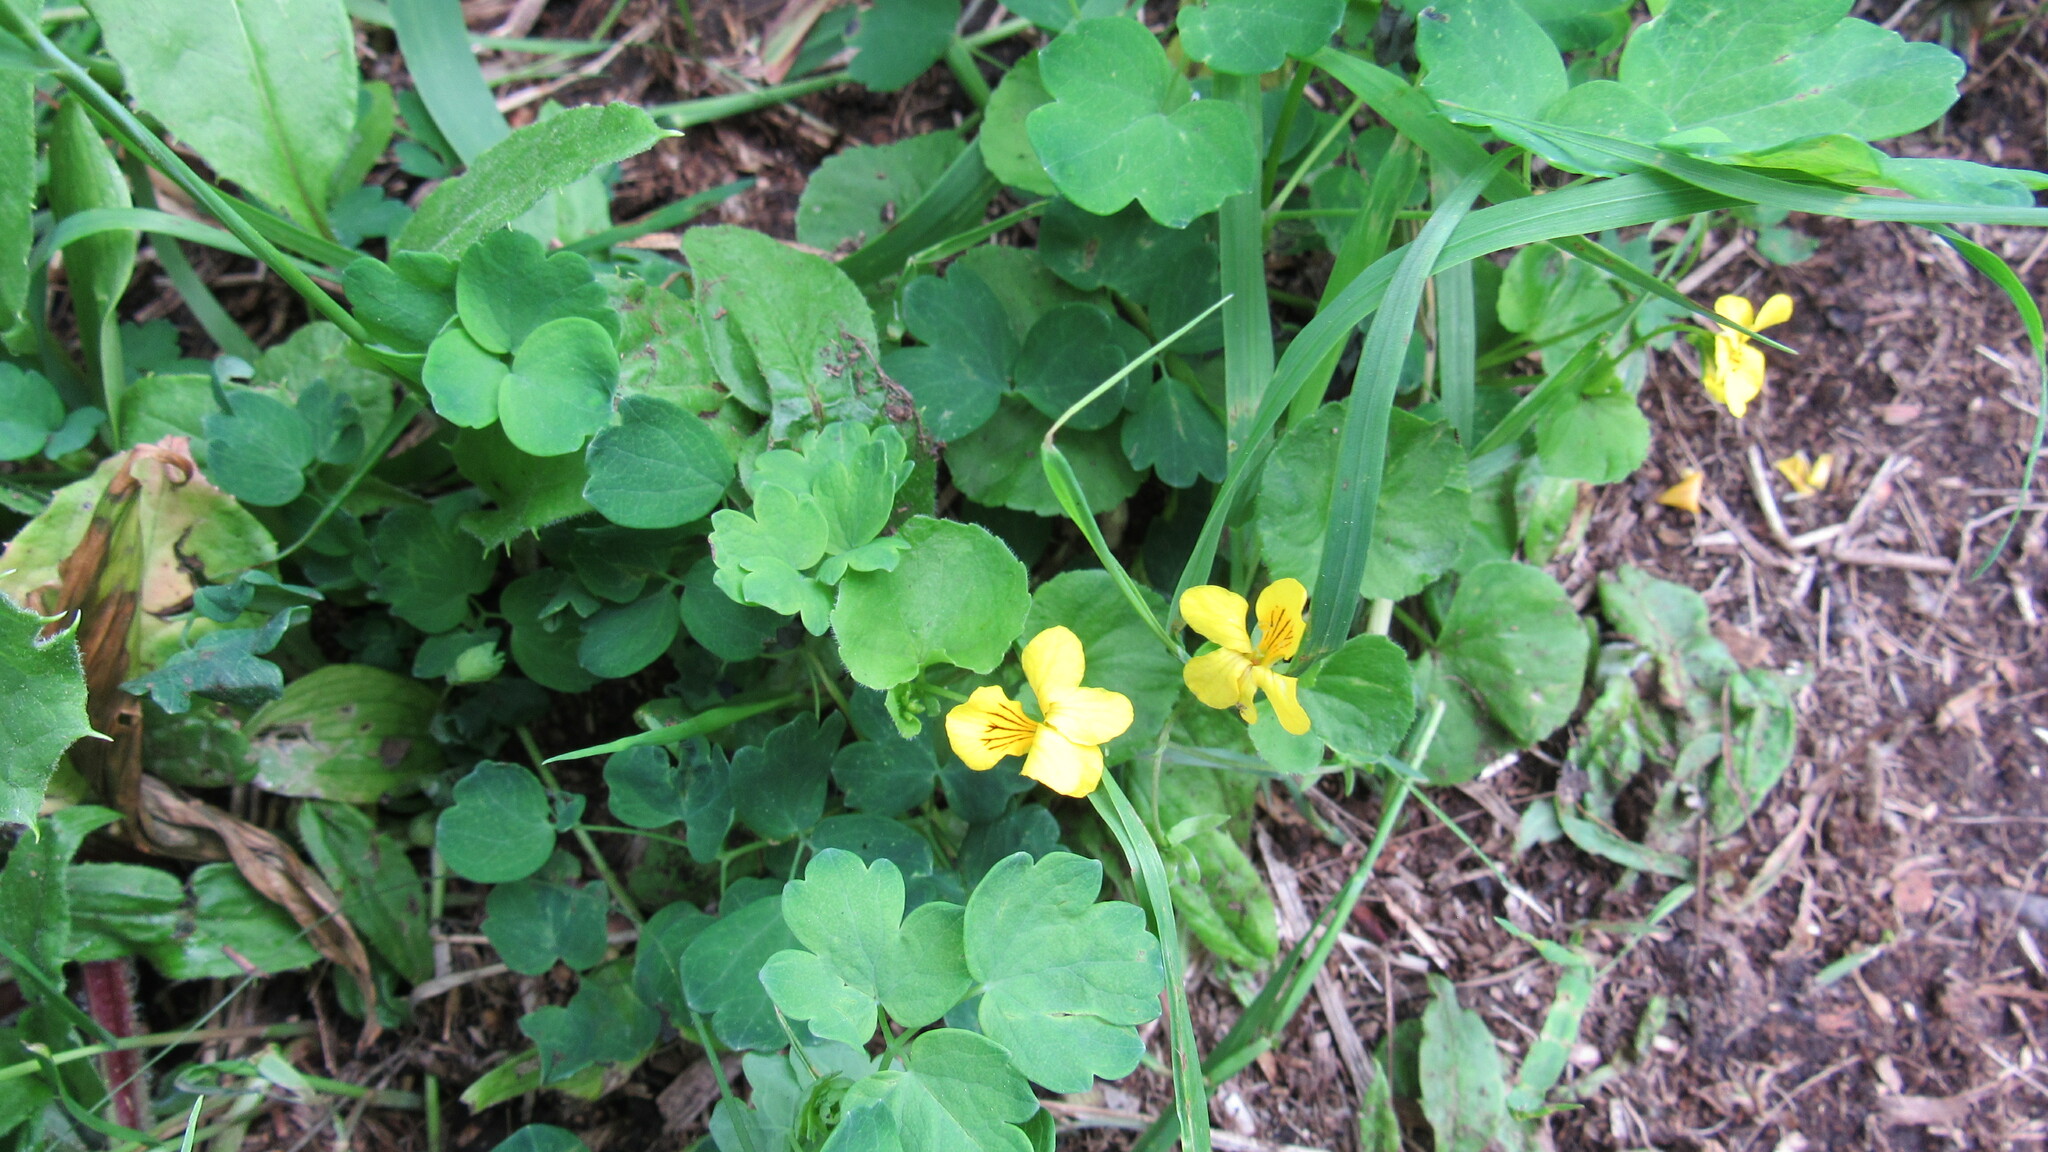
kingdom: Plantae
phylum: Tracheophyta
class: Magnoliopsida
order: Malpighiales
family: Violaceae
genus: Viola
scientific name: Viola biflora
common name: Alpine yellow violet
